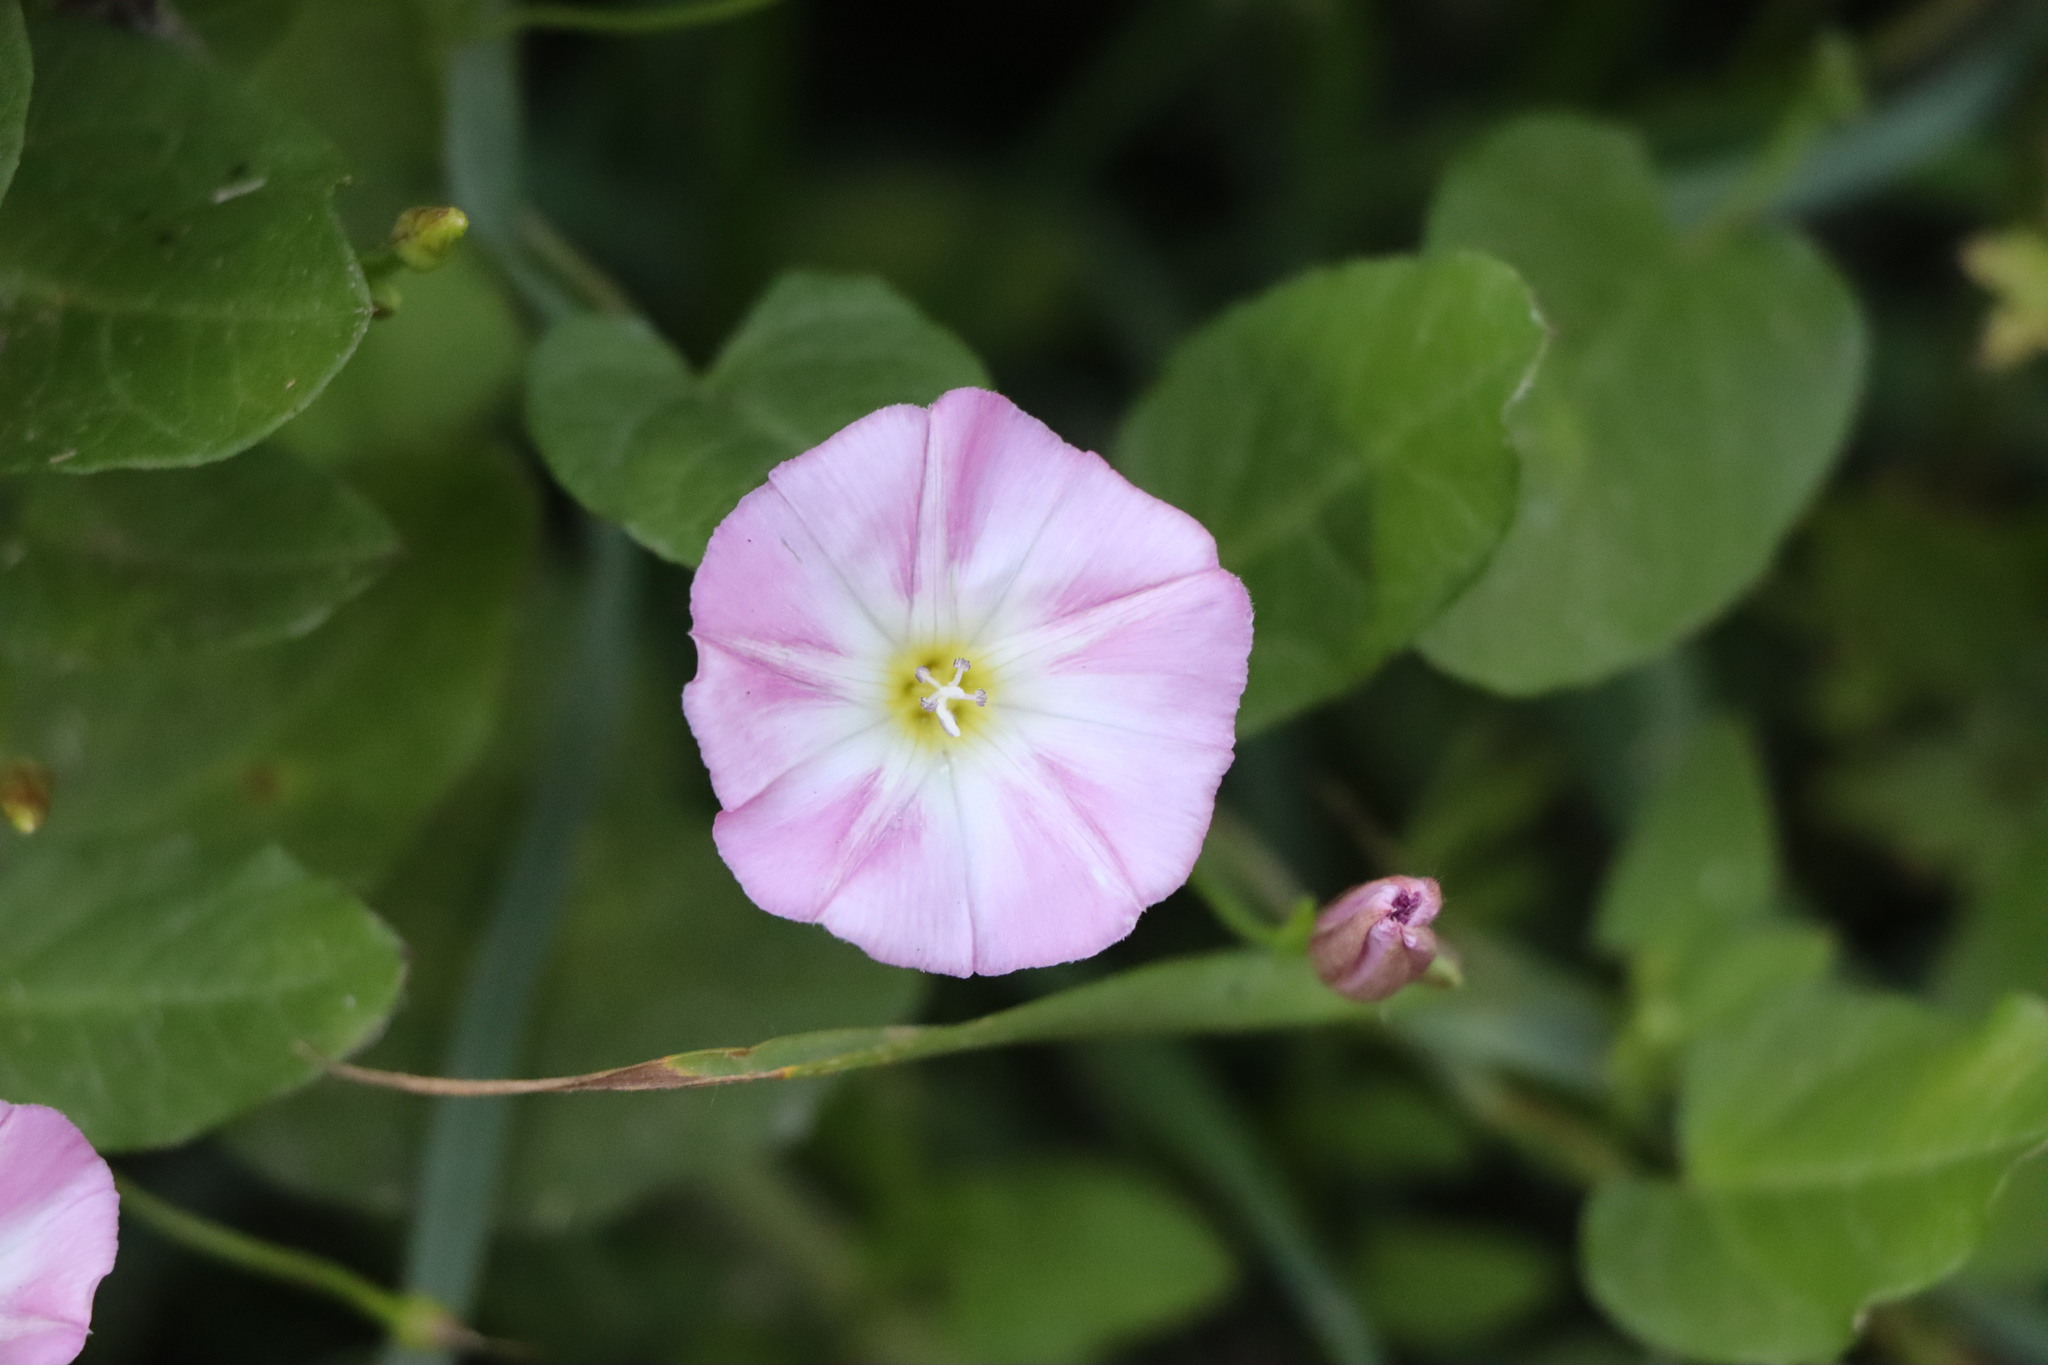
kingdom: Plantae
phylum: Tracheophyta
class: Magnoliopsida
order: Solanales
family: Convolvulaceae
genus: Convolvulus
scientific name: Convolvulus arvensis
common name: Field bindweed
